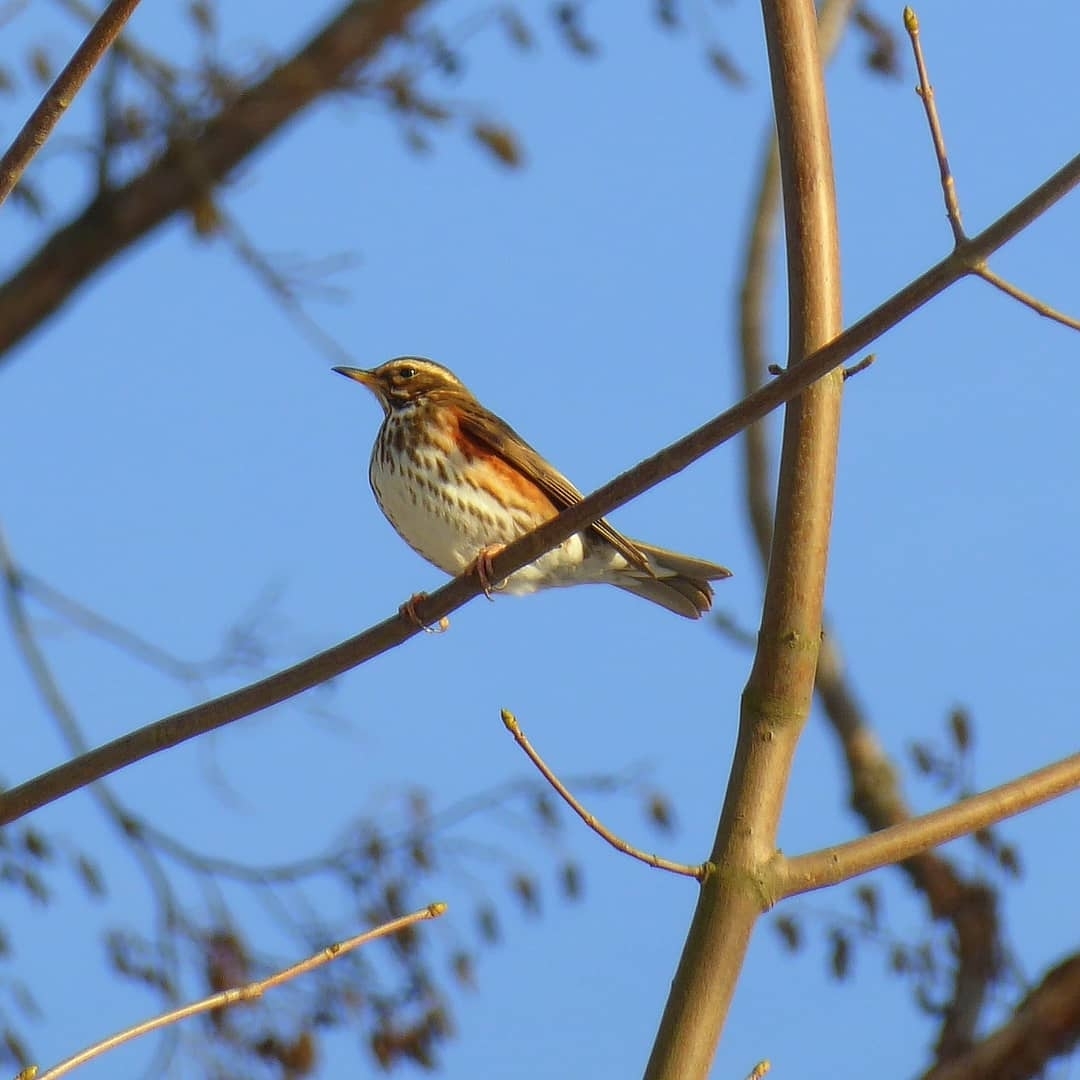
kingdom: Animalia
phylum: Chordata
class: Aves
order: Passeriformes
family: Turdidae
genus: Turdus
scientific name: Turdus iliacus
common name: Redwing
